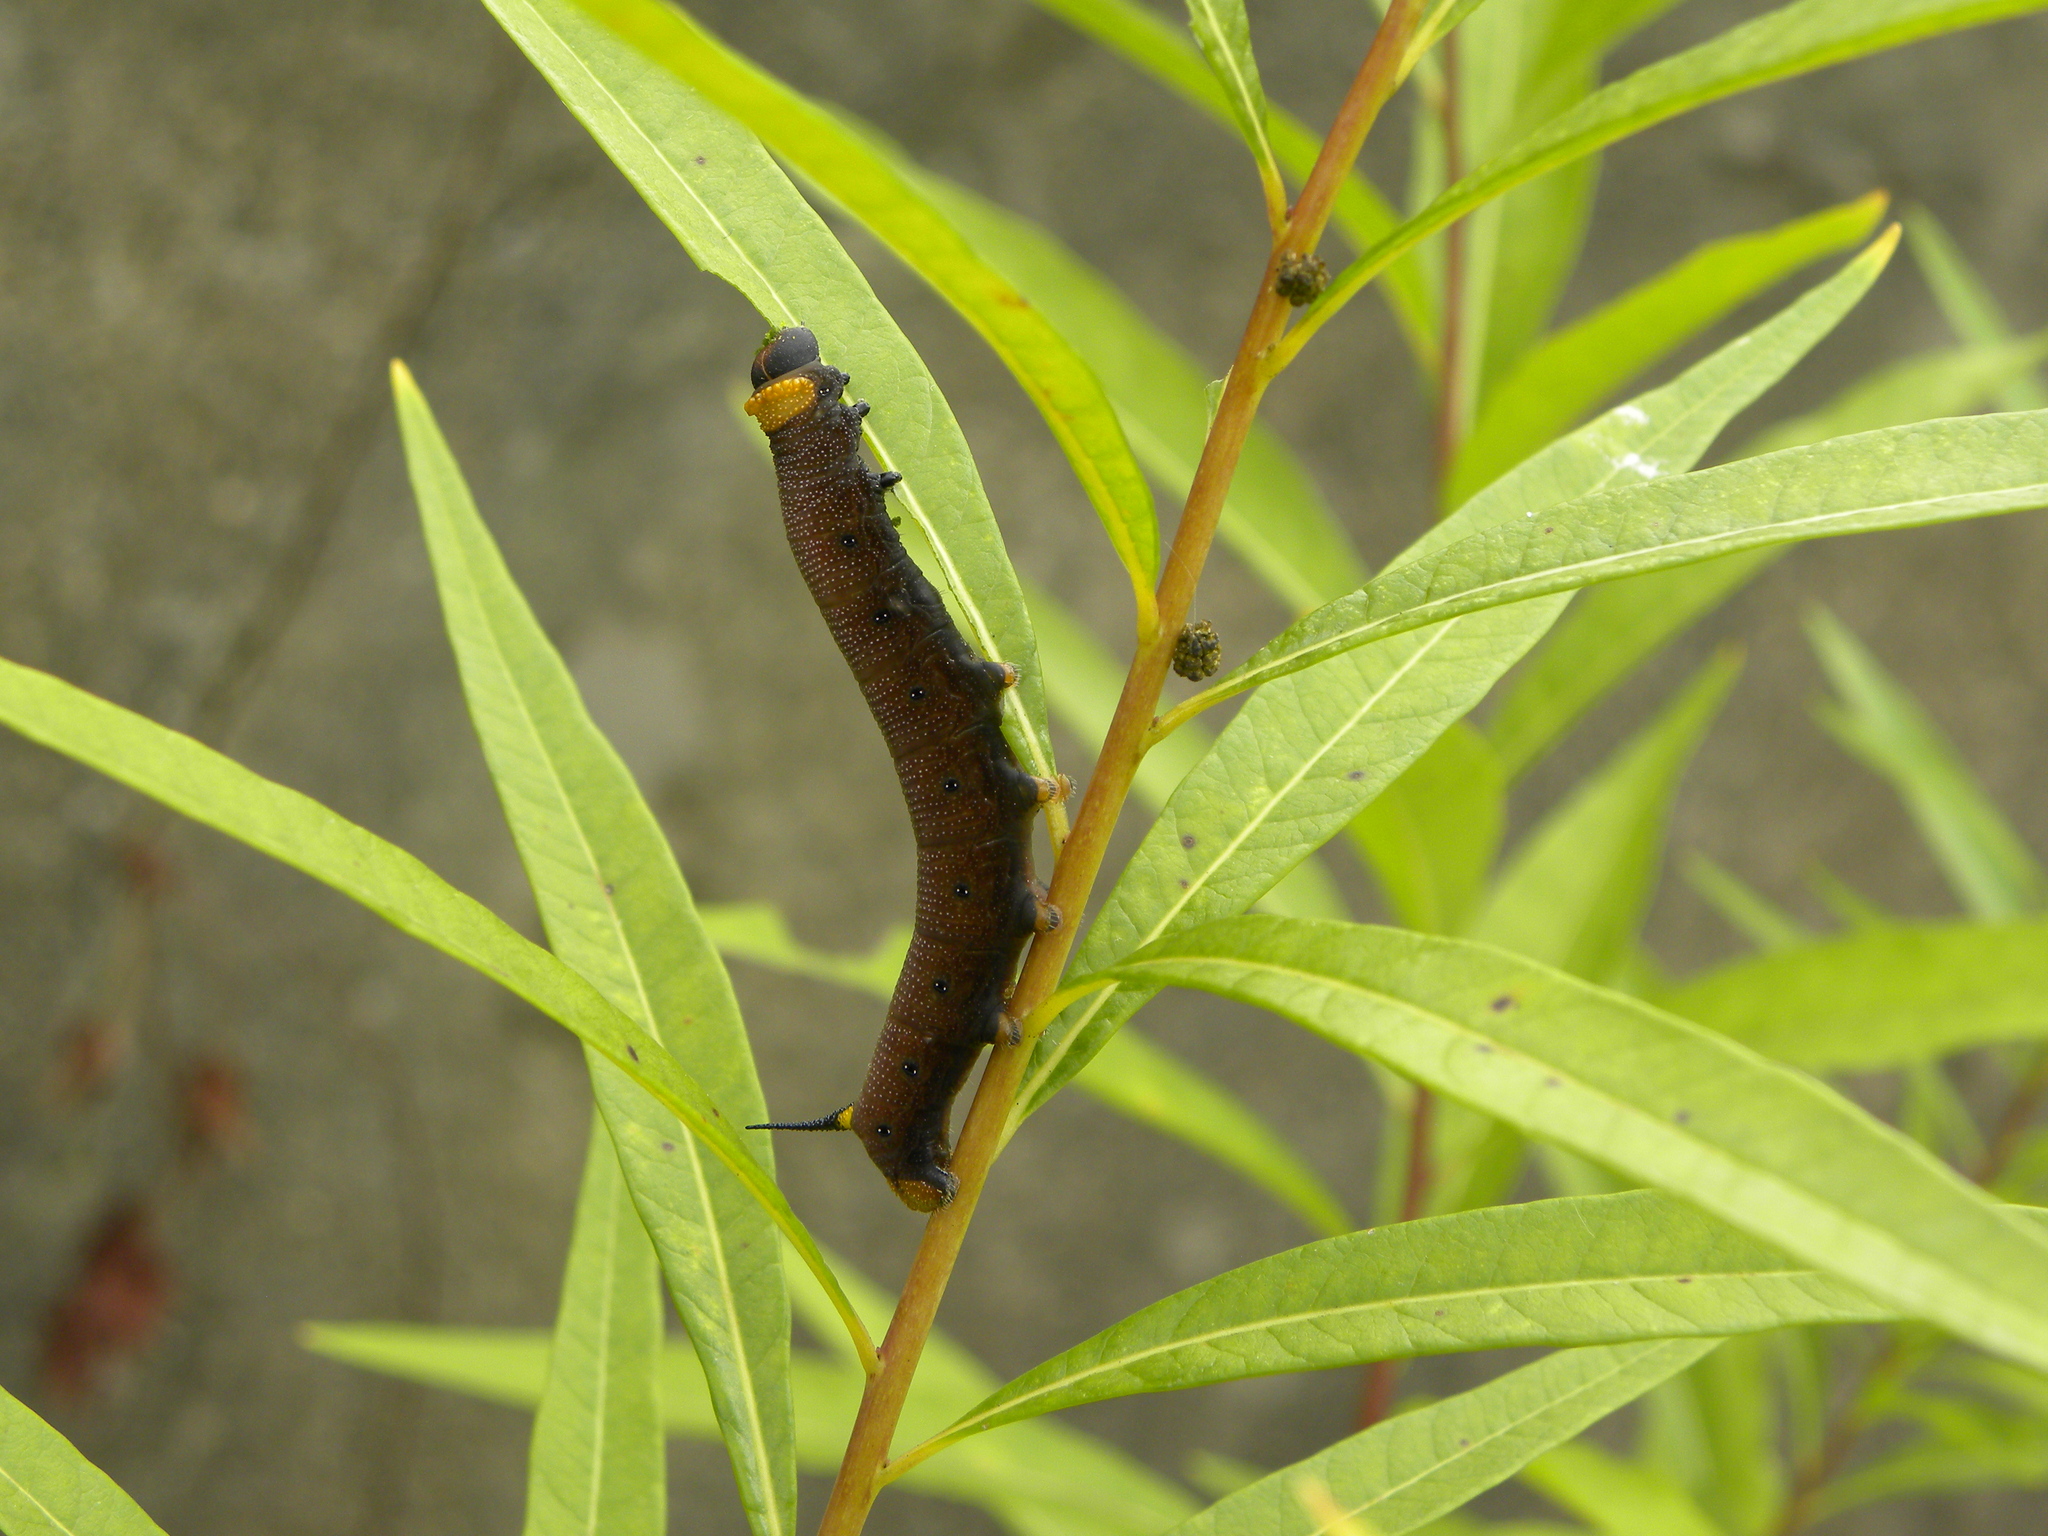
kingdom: Animalia
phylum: Arthropoda
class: Insecta
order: Lepidoptera
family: Sphingidae
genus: Hemaris
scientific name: Hemaris diffinis
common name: Bumblebee moth
